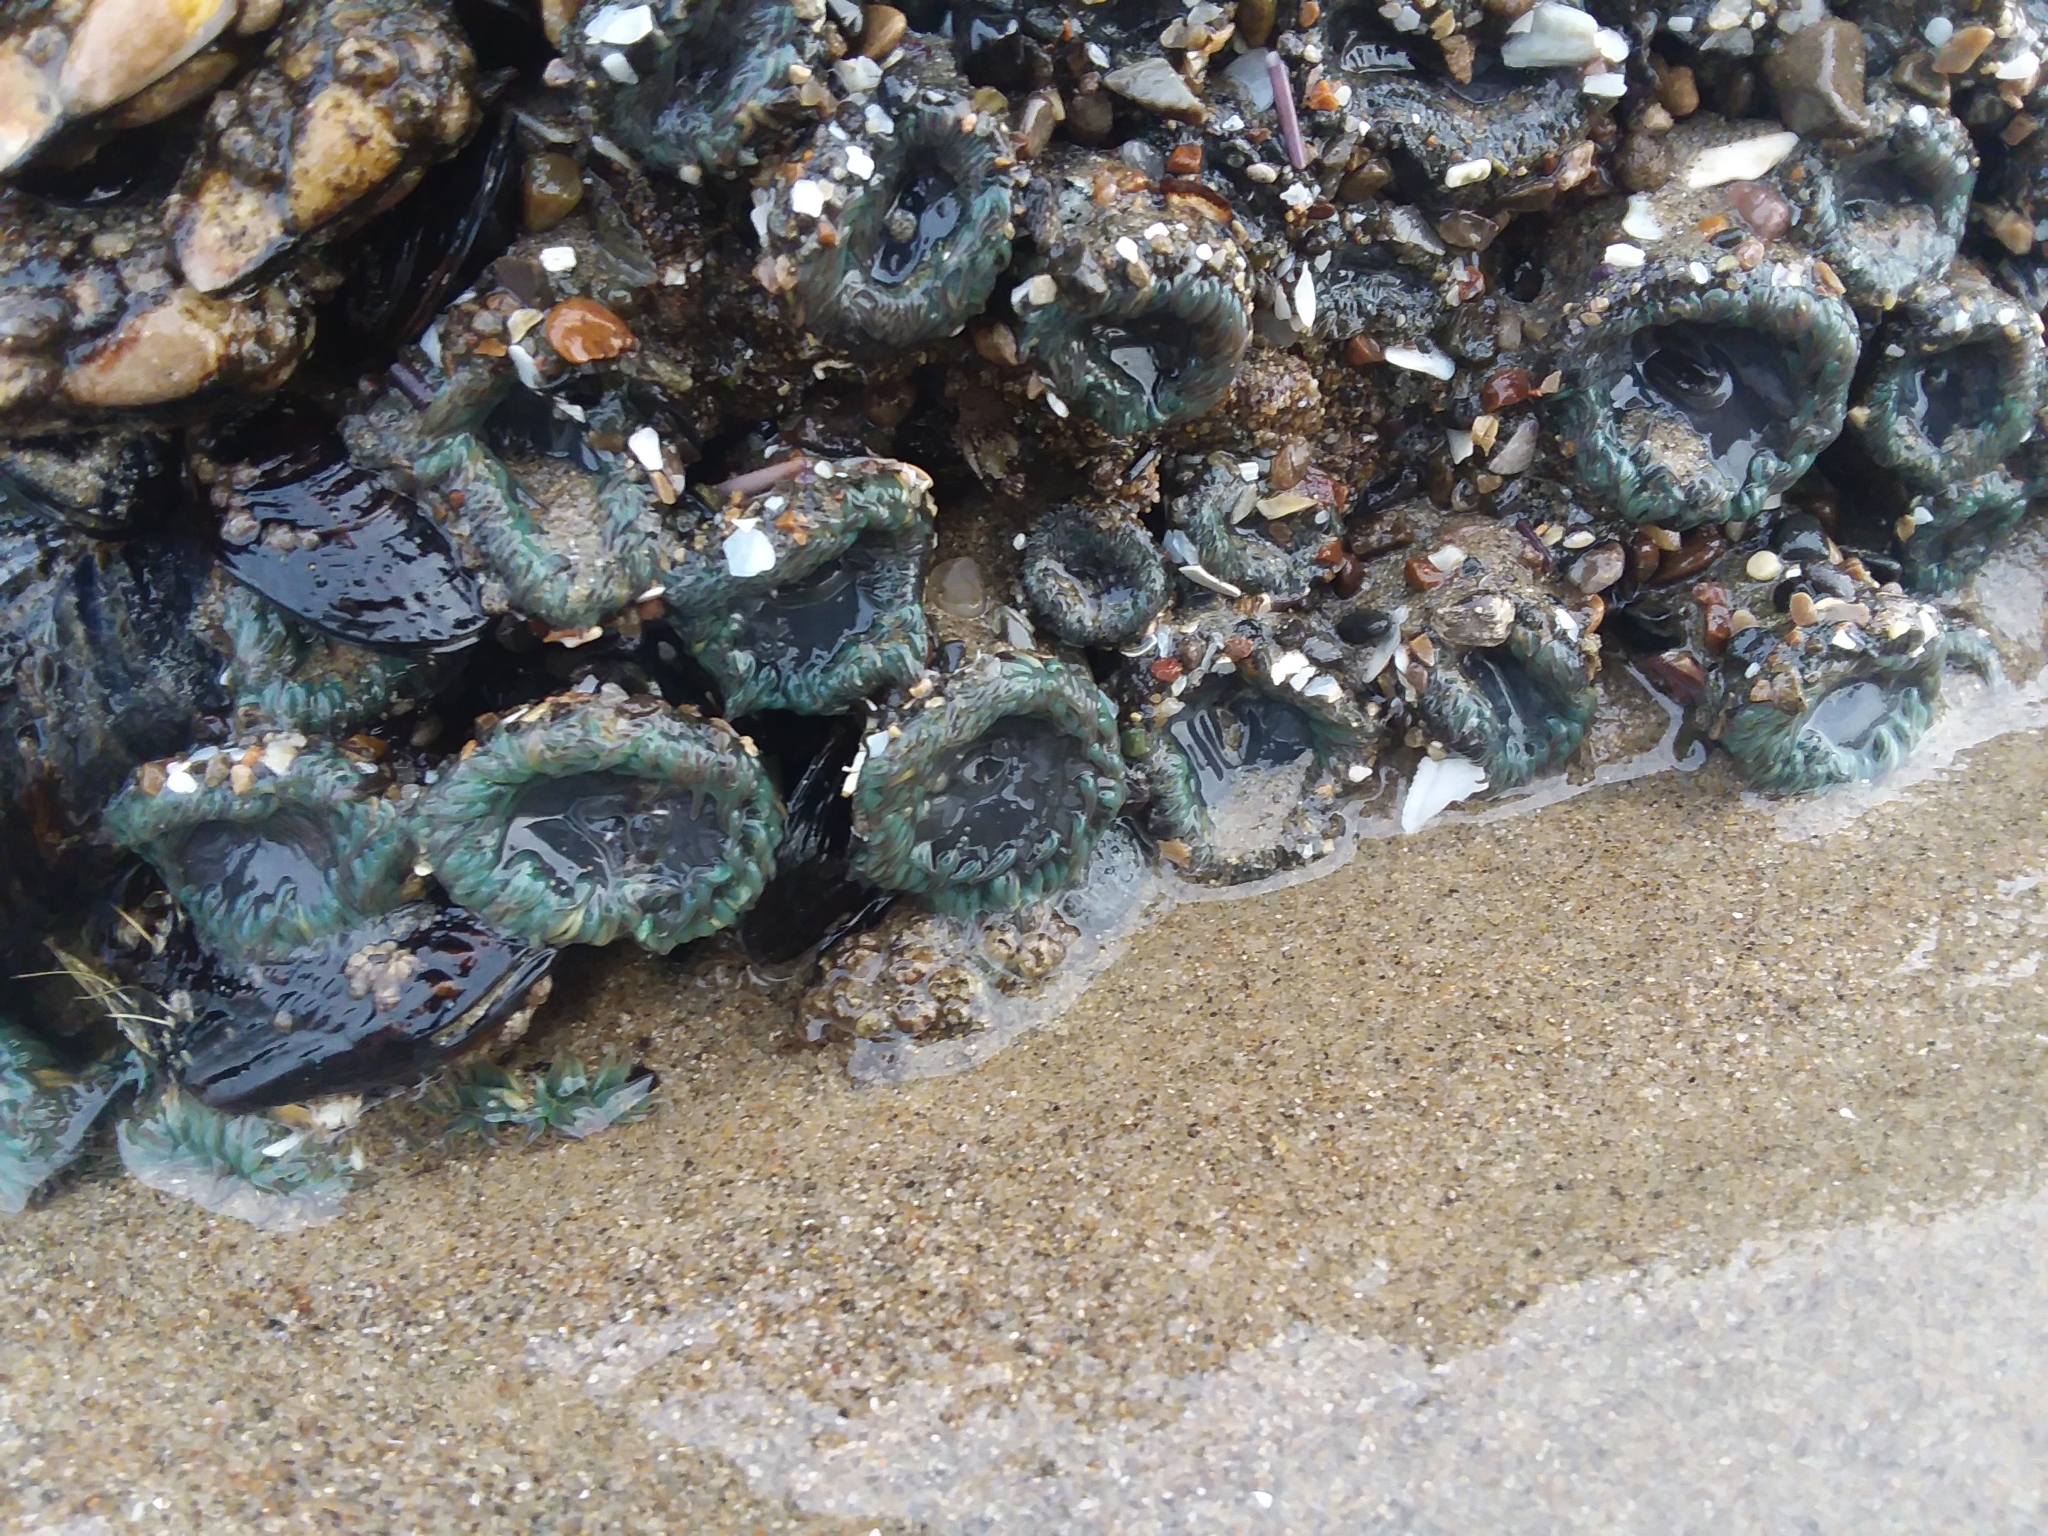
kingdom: Animalia
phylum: Cnidaria
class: Anthozoa
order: Actiniaria
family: Actiniidae
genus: Anthopleura
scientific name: Anthopleura elegantissima
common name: Clonal anemone
